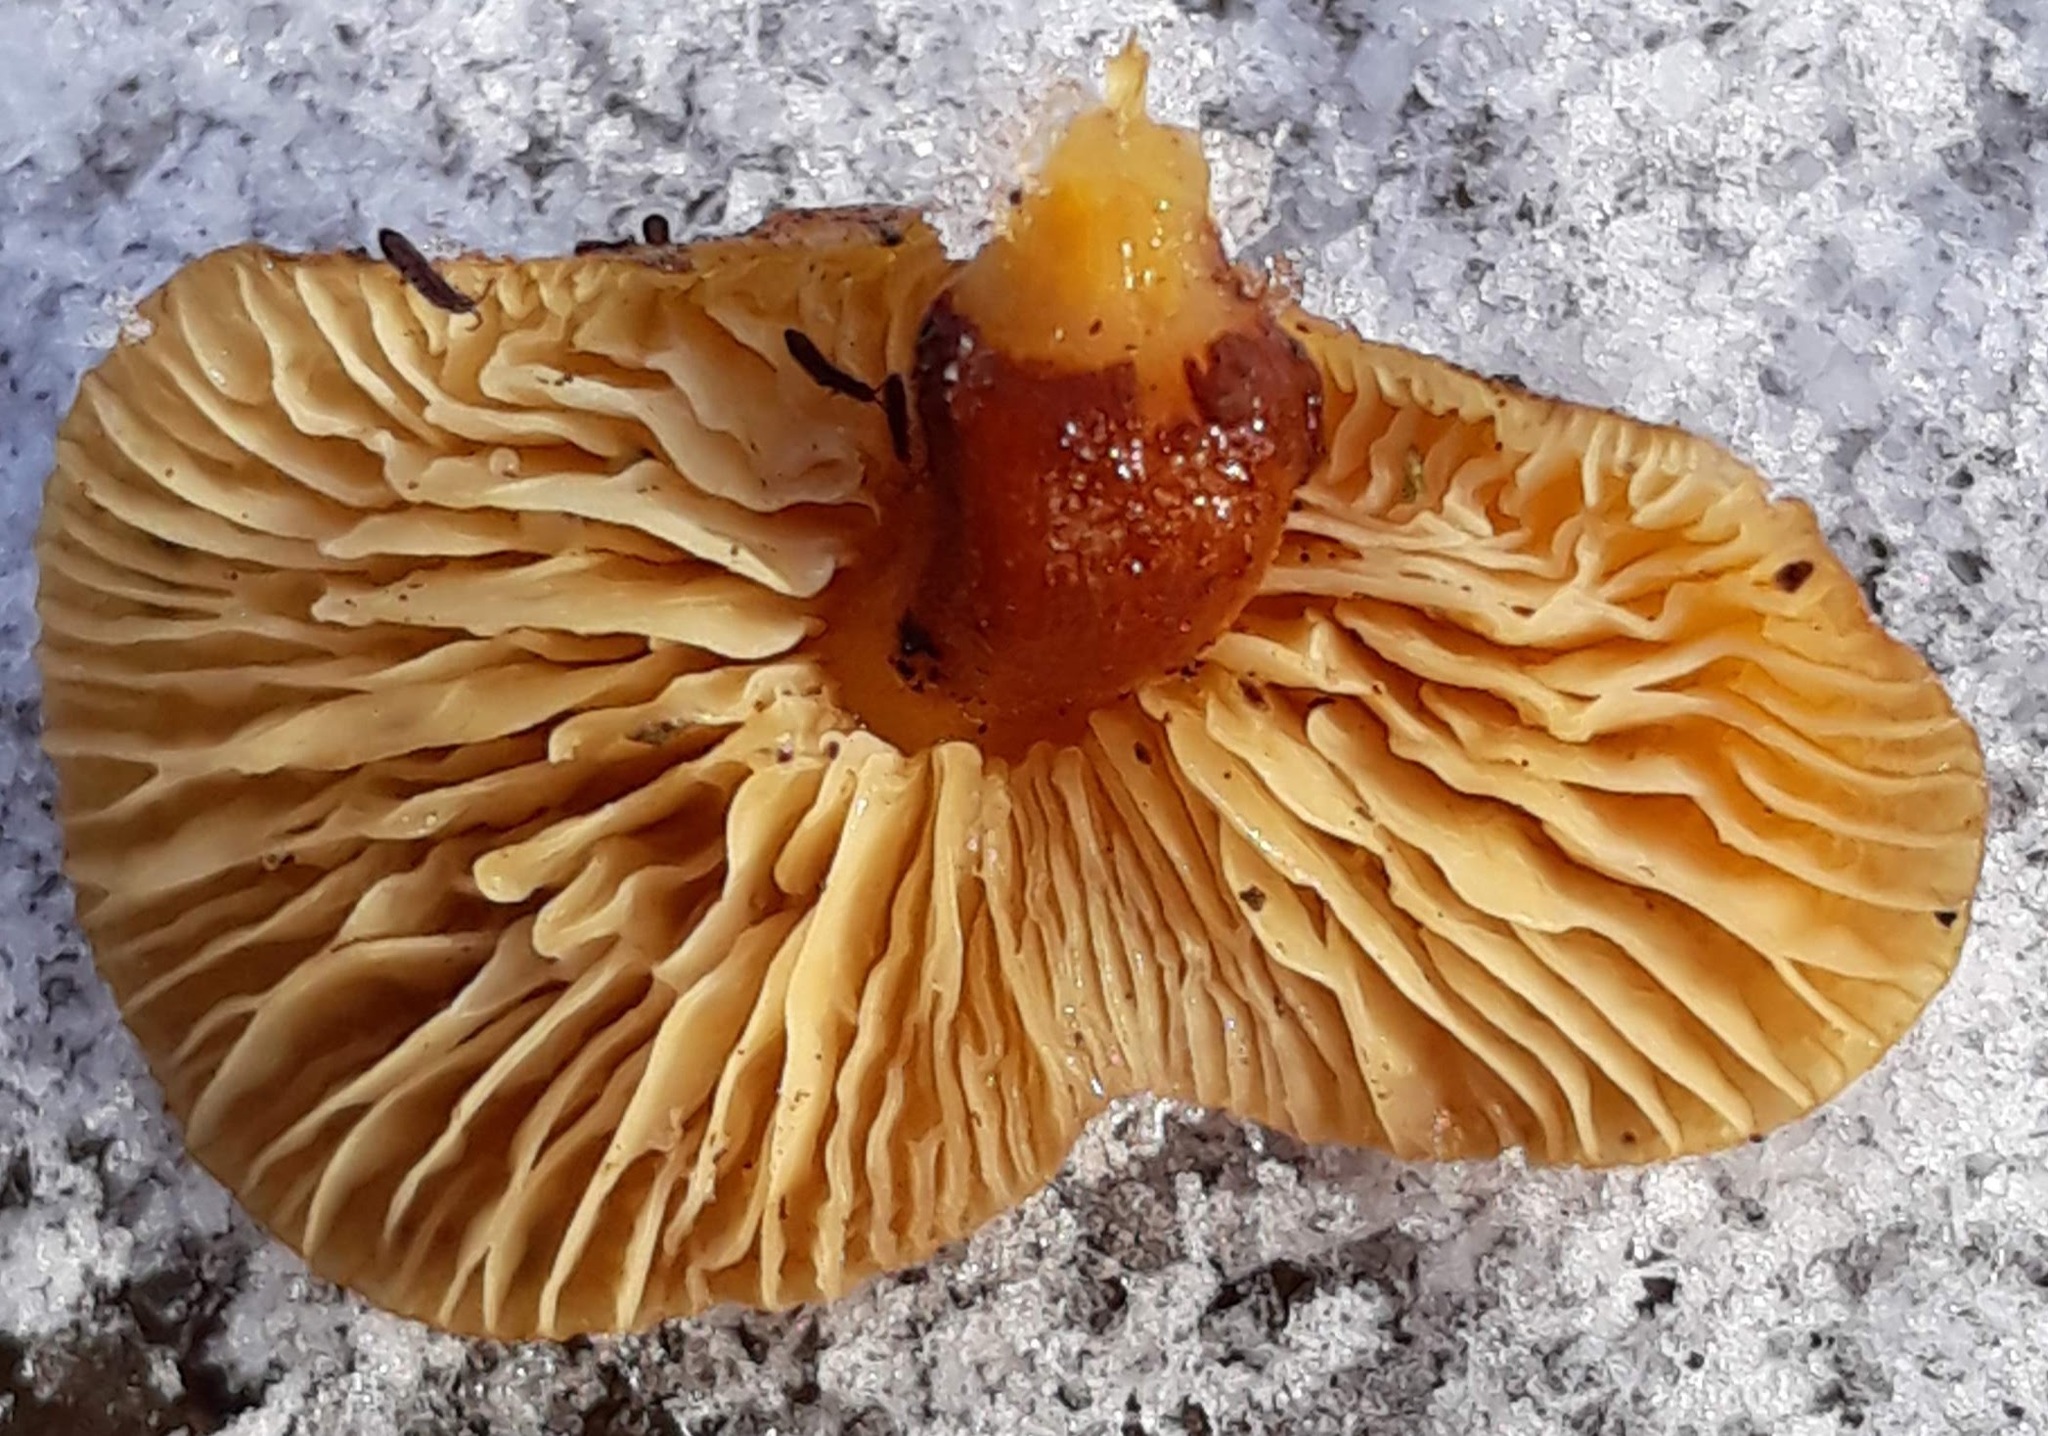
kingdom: Fungi
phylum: Basidiomycota
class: Agaricomycetes
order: Agaricales
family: Physalacriaceae
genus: Flammulina
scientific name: Flammulina velutipes
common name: Velvet shank
